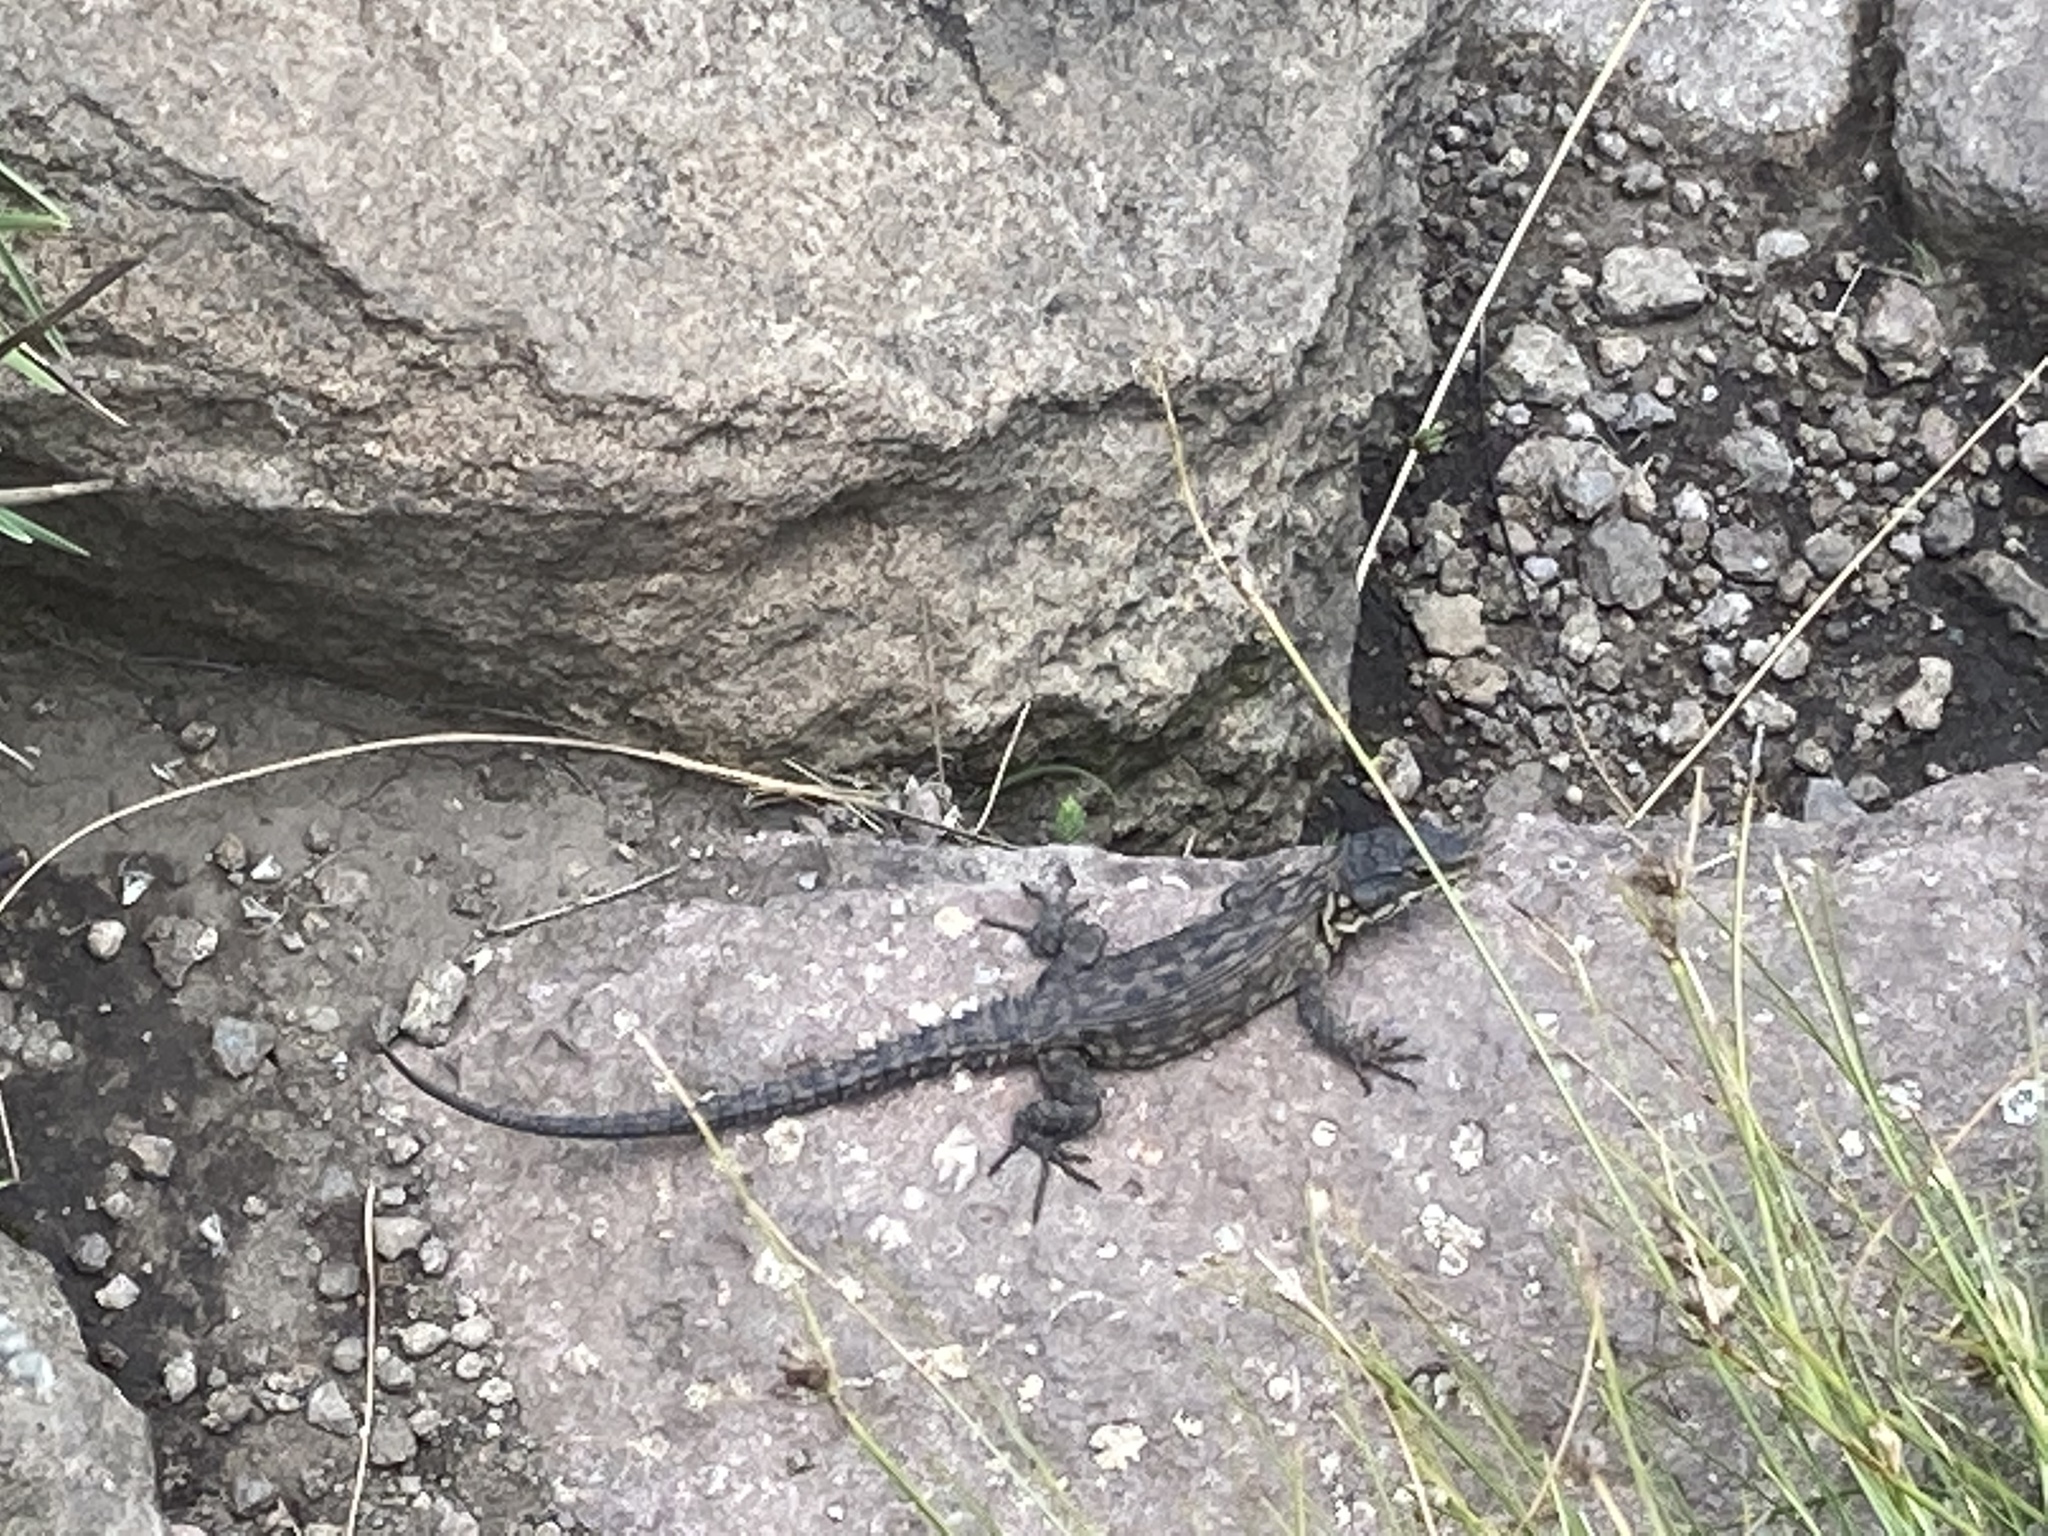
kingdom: Animalia
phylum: Chordata
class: Squamata
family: Cordylidae
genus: Pseudocordylus
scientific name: Pseudocordylus subviridis
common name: Drakensberg crag lizard
